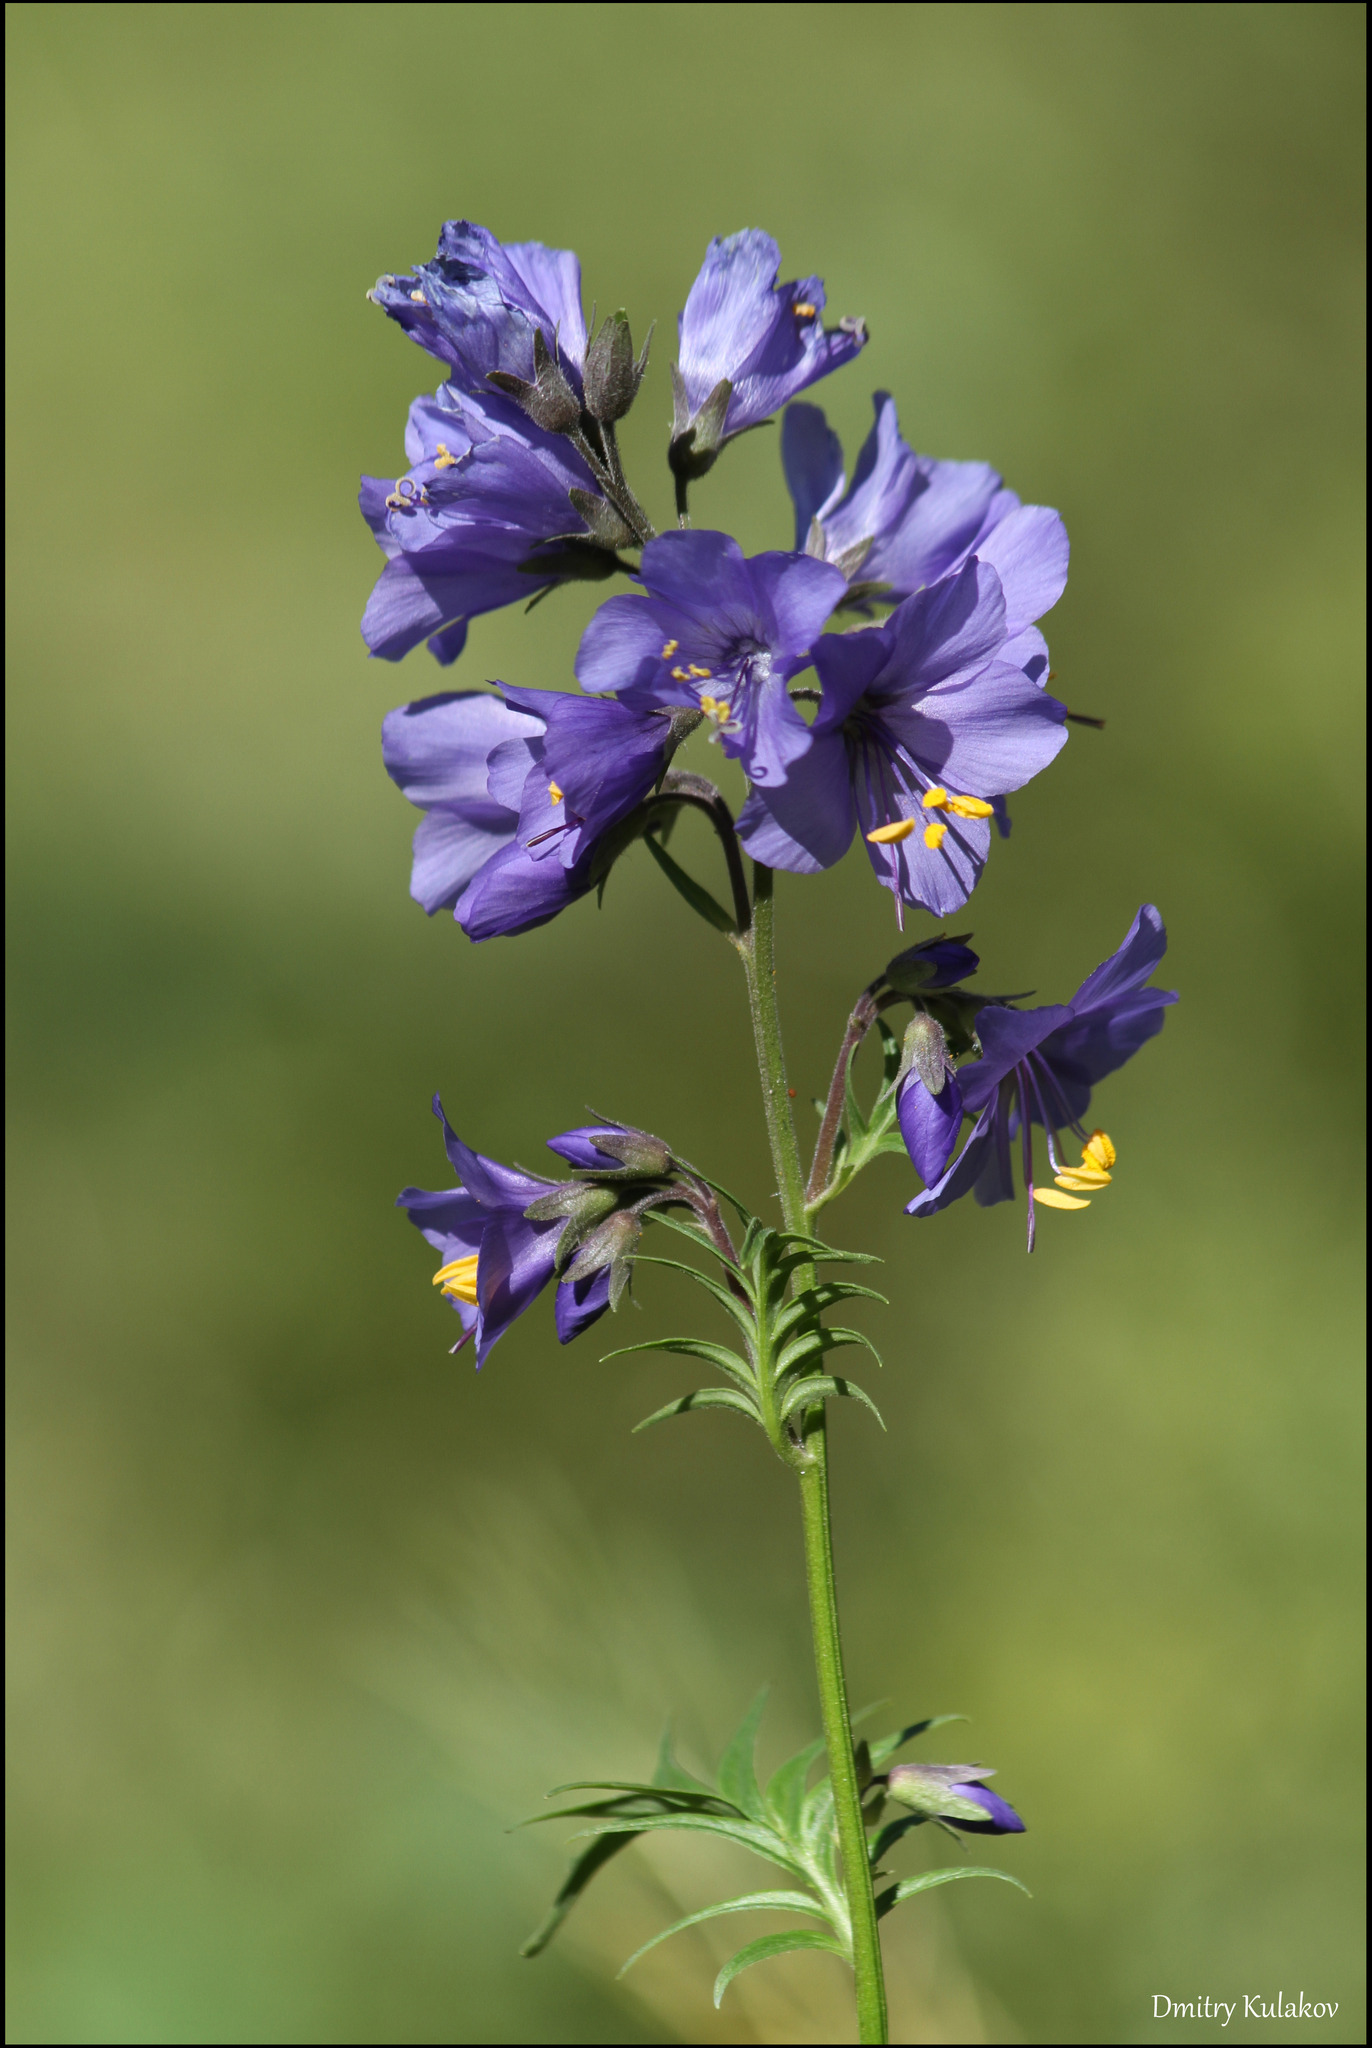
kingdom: Plantae
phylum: Tracheophyta
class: Magnoliopsida
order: Ericales
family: Polemoniaceae
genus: Polemonium
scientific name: Polemonium caeruleum
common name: Jacob's-ladder
